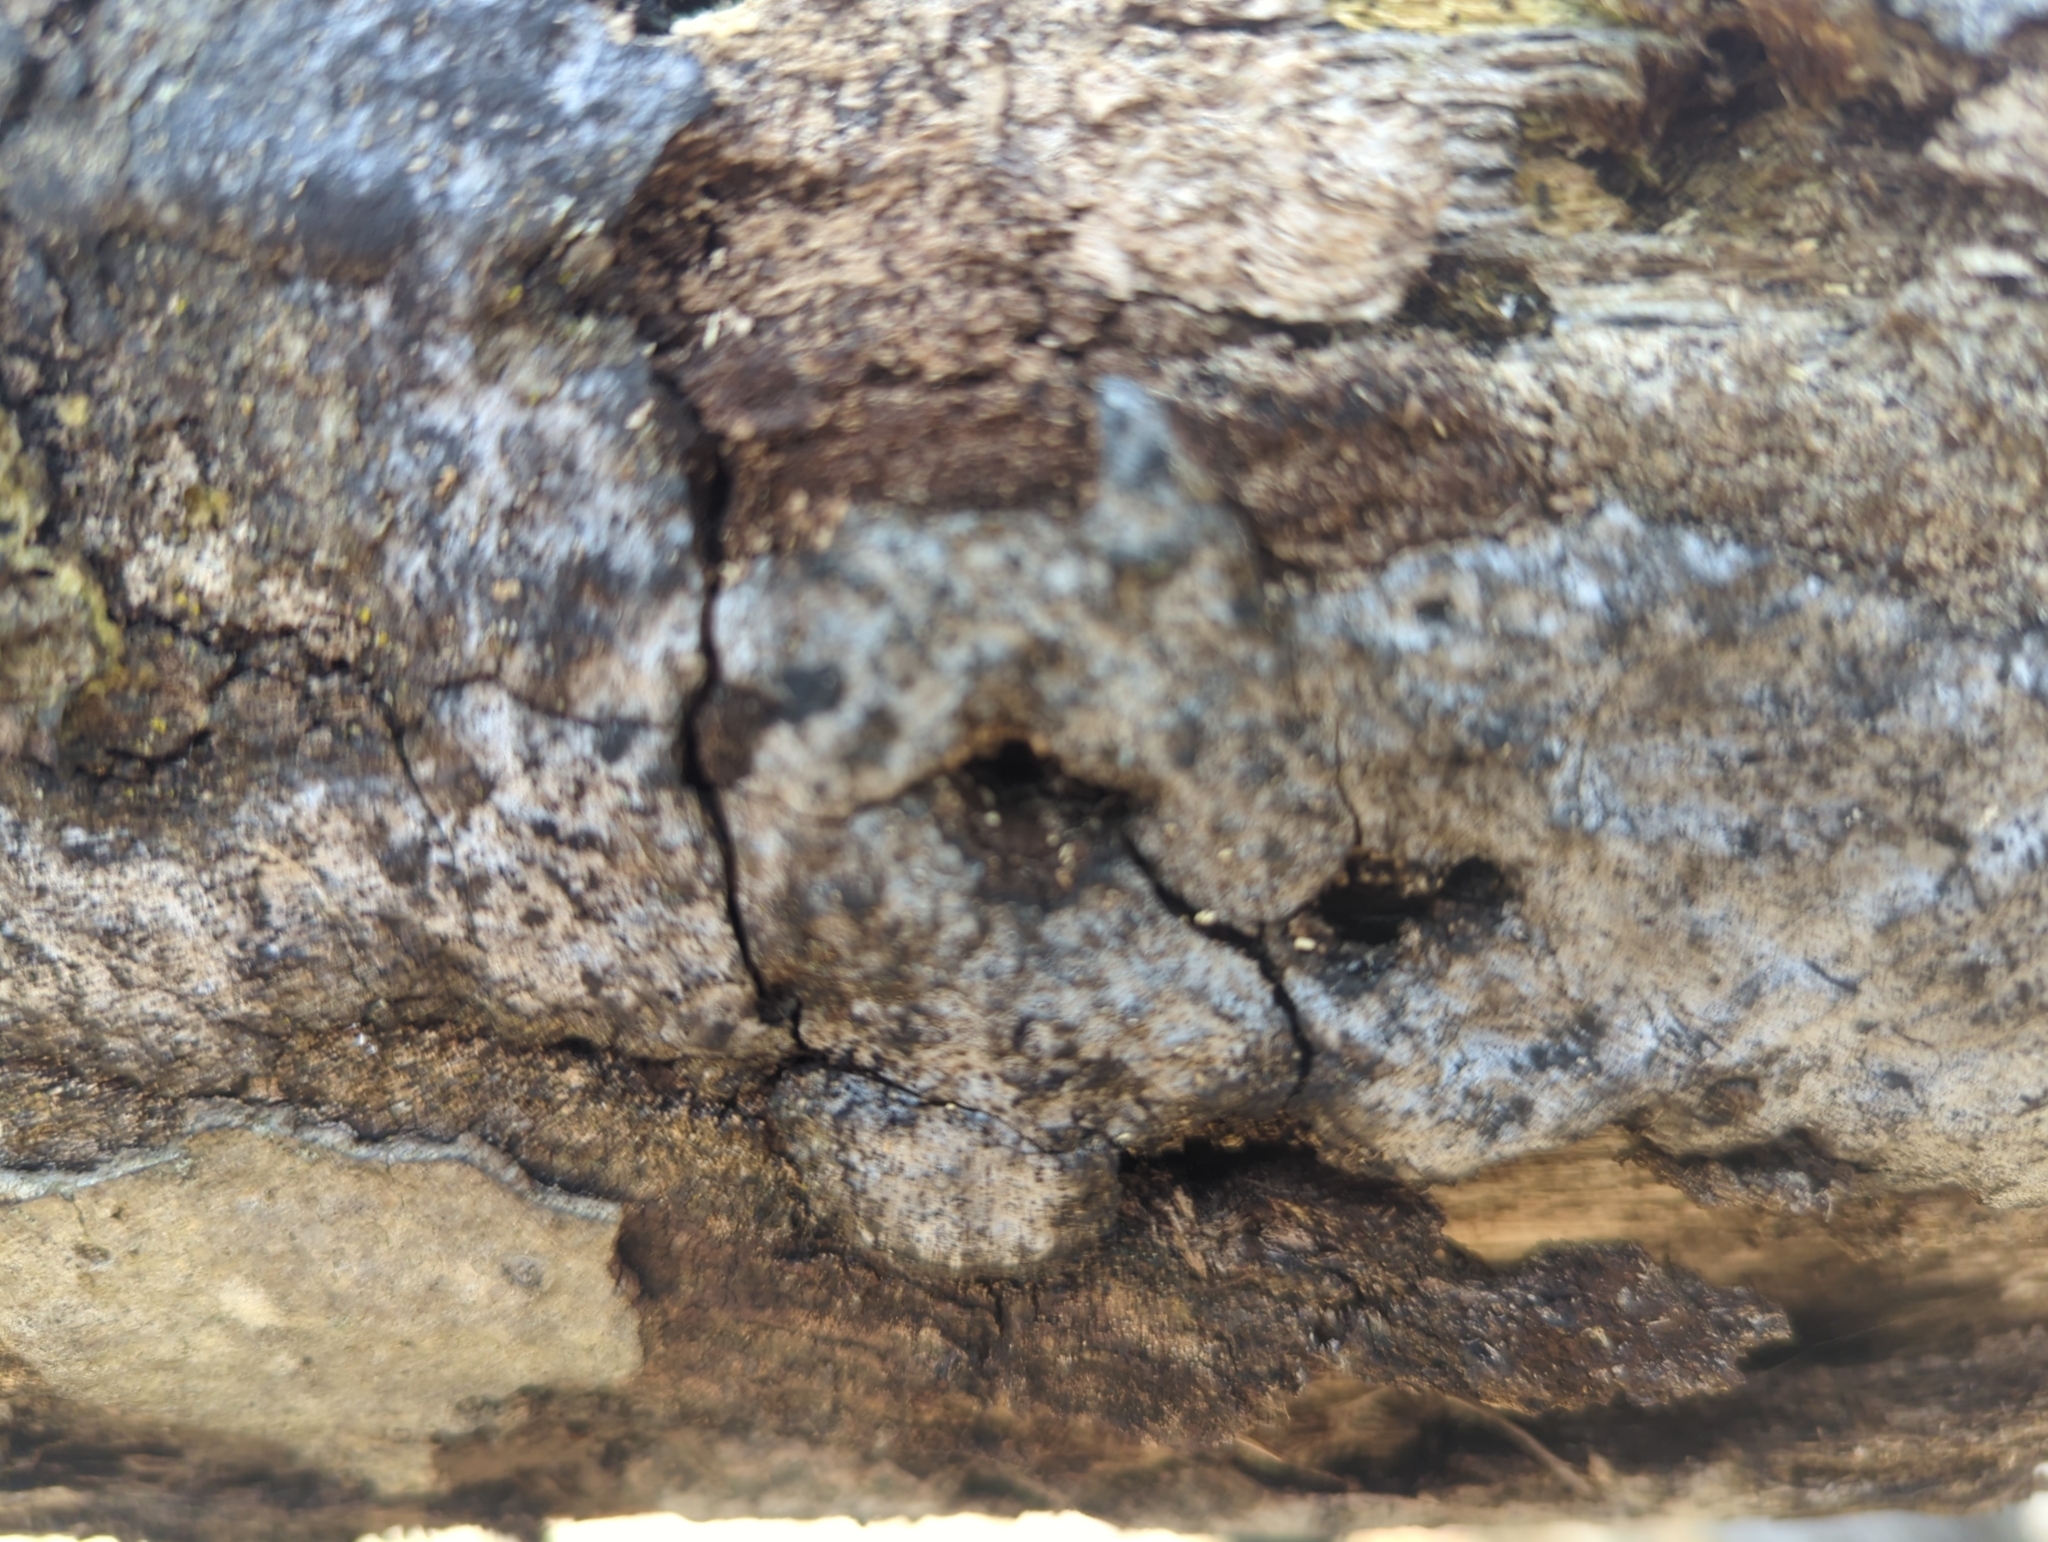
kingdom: Fungi
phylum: Ascomycota
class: Sordariomycetes
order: Xylariales
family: Graphostromataceae
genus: Biscogniauxia
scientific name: Biscogniauxia atropunctata
